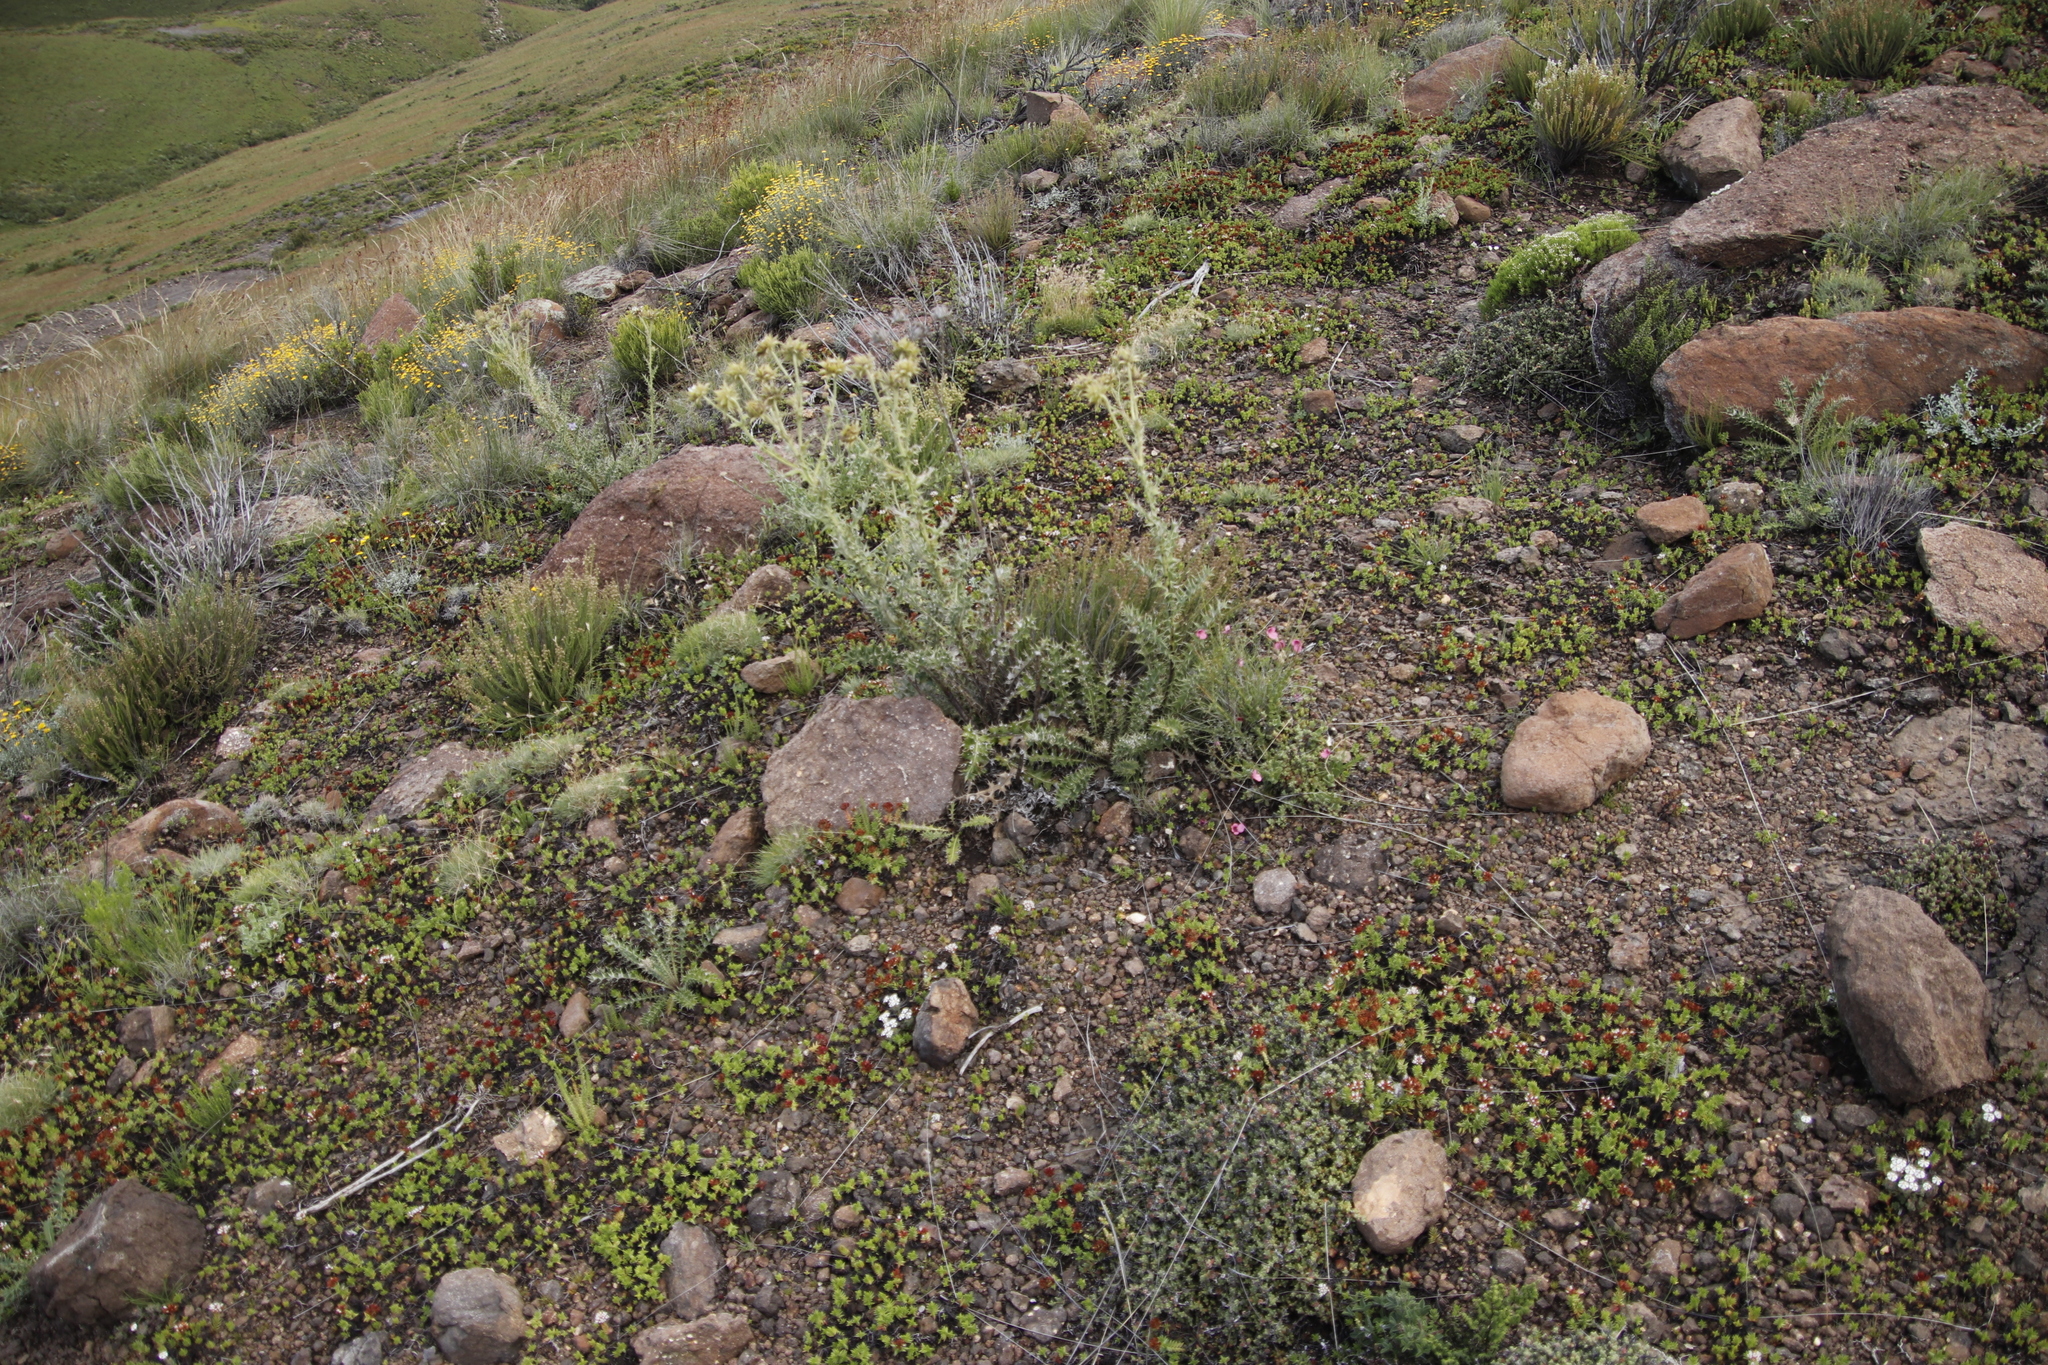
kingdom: Plantae
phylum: Tracheophyta
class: Magnoliopsida
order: Asterales
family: Asteraceae
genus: Berkheya
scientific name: Berkheya cirsiifolia
